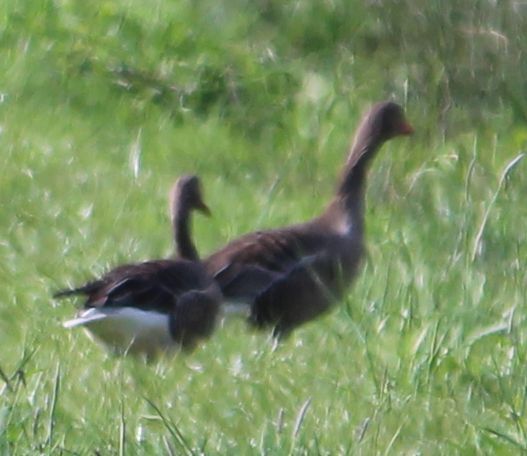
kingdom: Animalia
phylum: Chordata
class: Aves
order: Anseriformes
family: Anatidae
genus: Anser
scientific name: Anser anser
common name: Greylag goose
